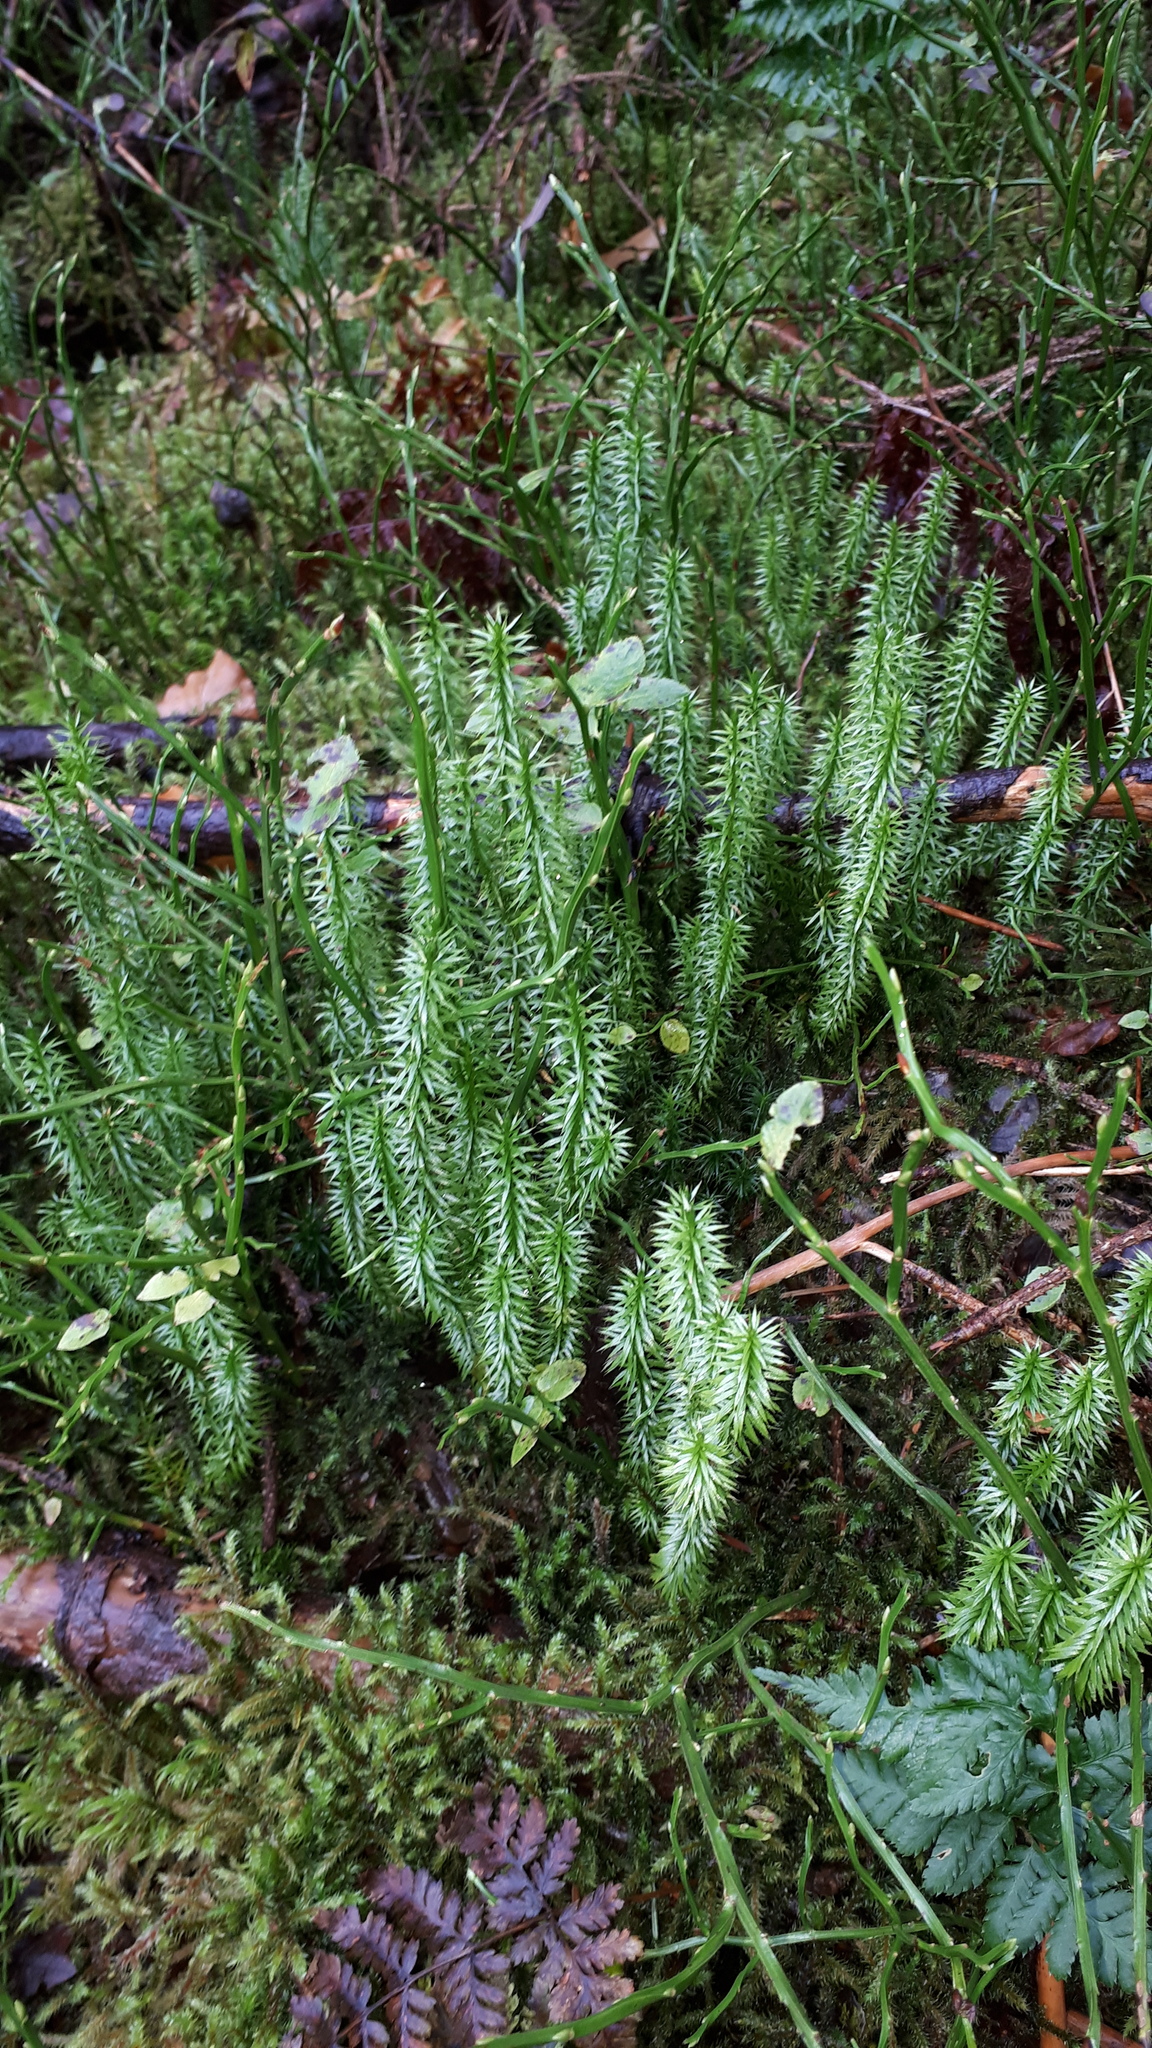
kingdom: Plantae
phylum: Tracheophyta
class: Lycopodiopsida
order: Lycopodiales
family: Lycopodiaceae
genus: Spinulum
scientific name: Spinulum annotinum
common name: Interrupted club-moss
